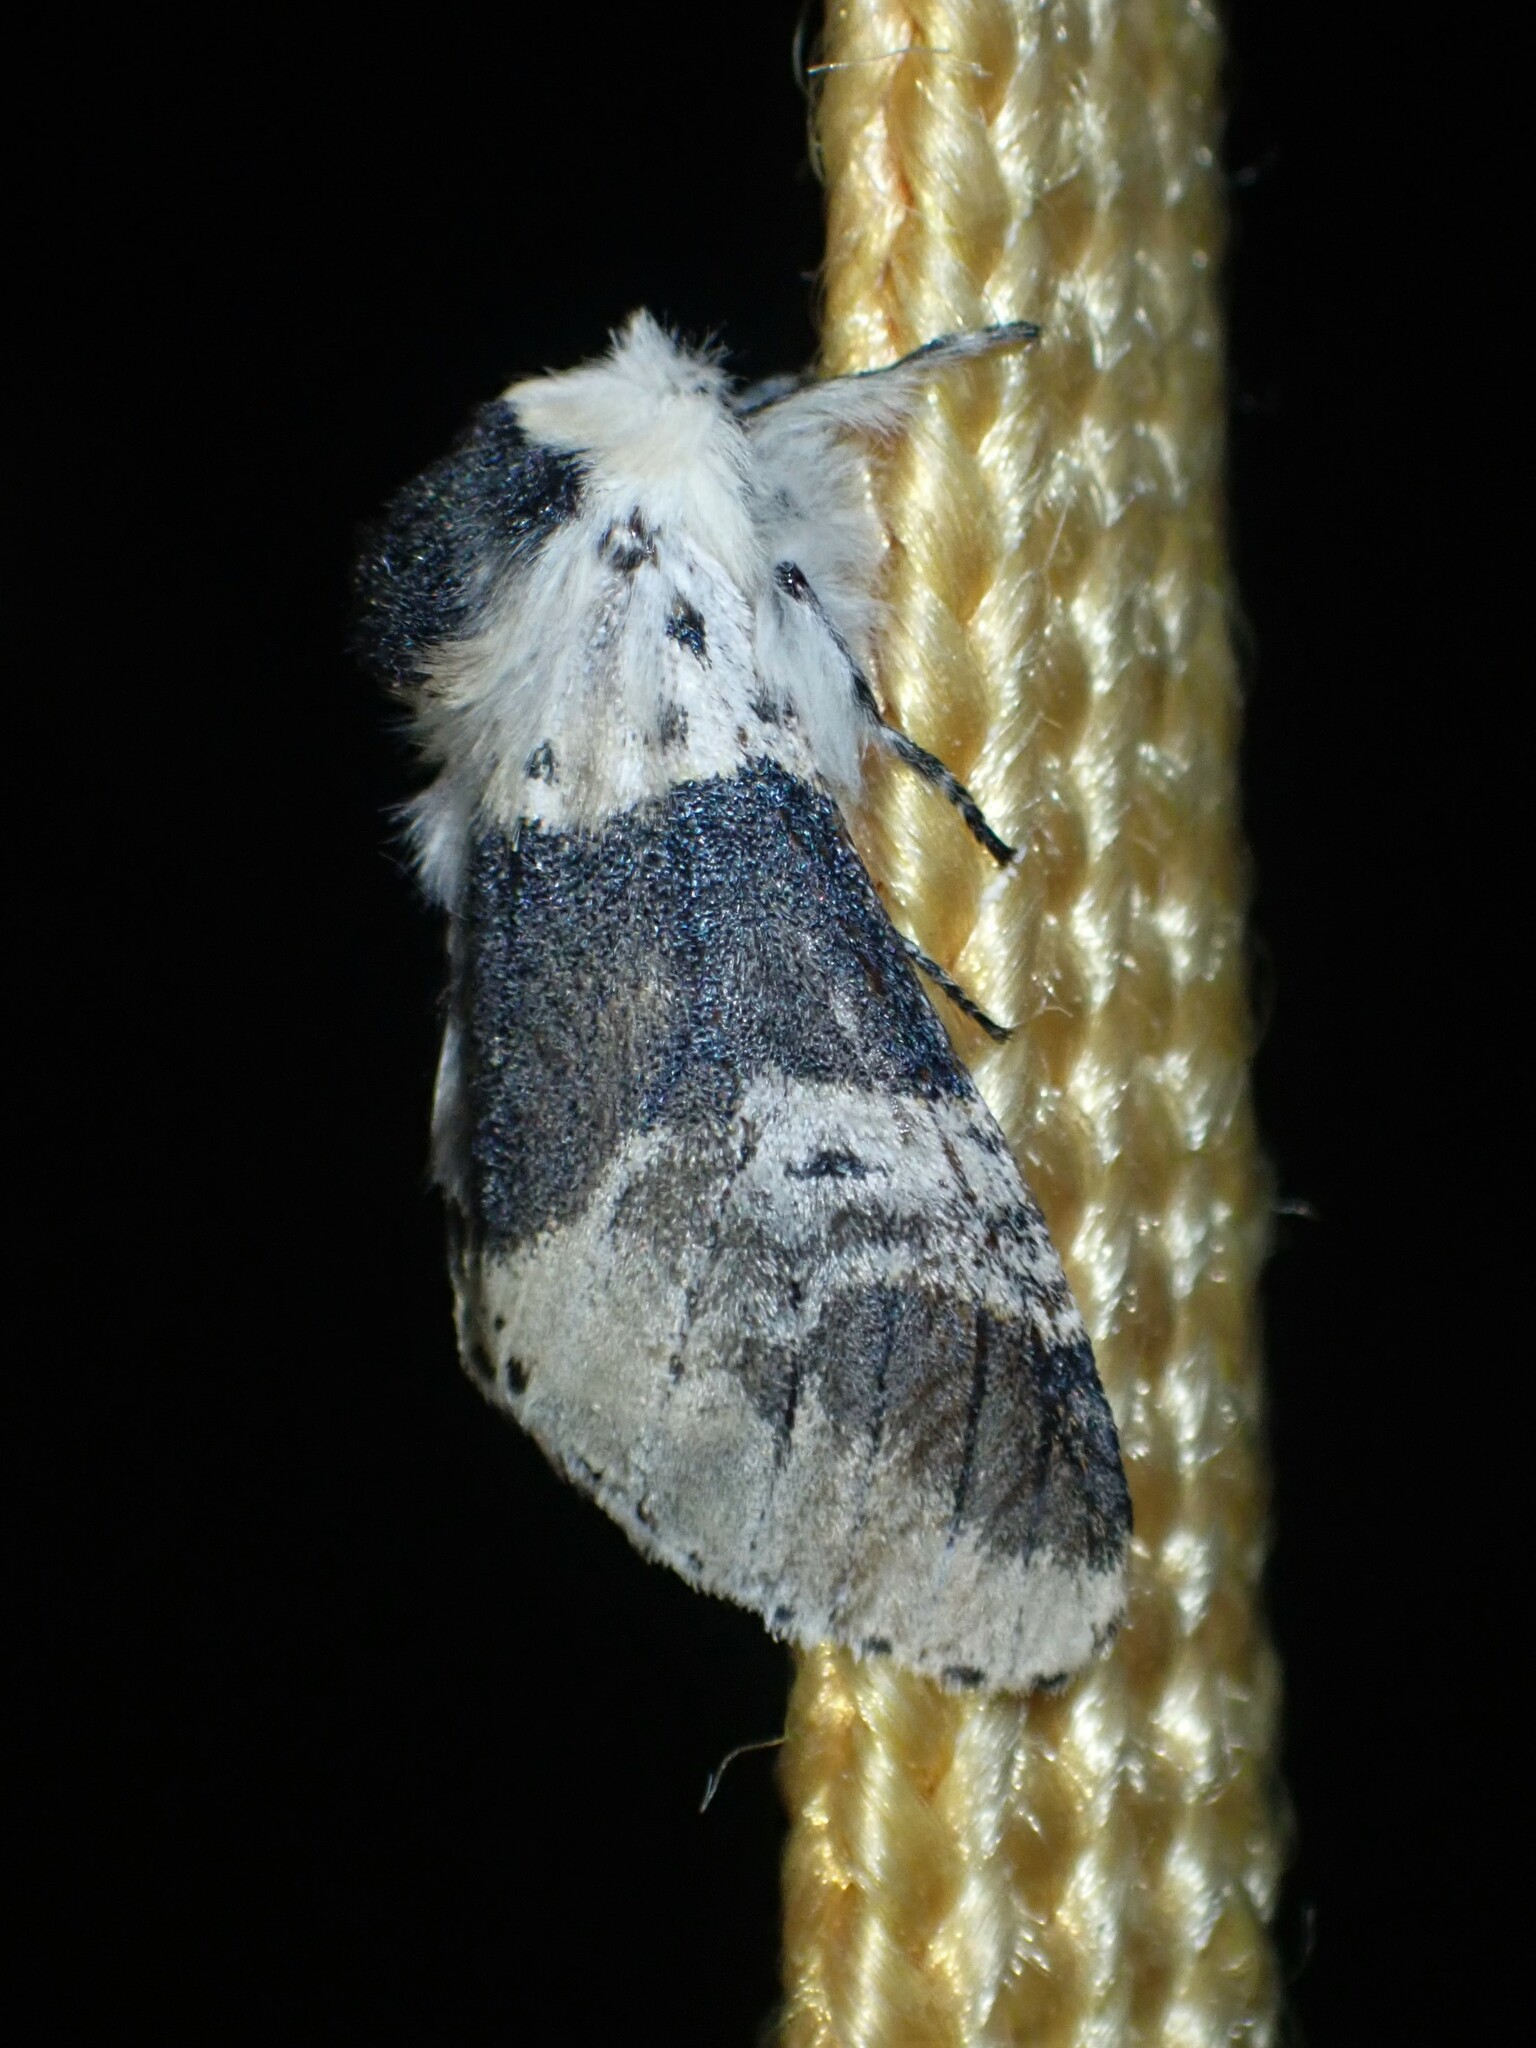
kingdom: Animalia
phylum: Arthropoda
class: Insecta
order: Lepidoptera
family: Notodontidae
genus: Furcula
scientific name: Furcula modesta
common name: Modest furcula moth
